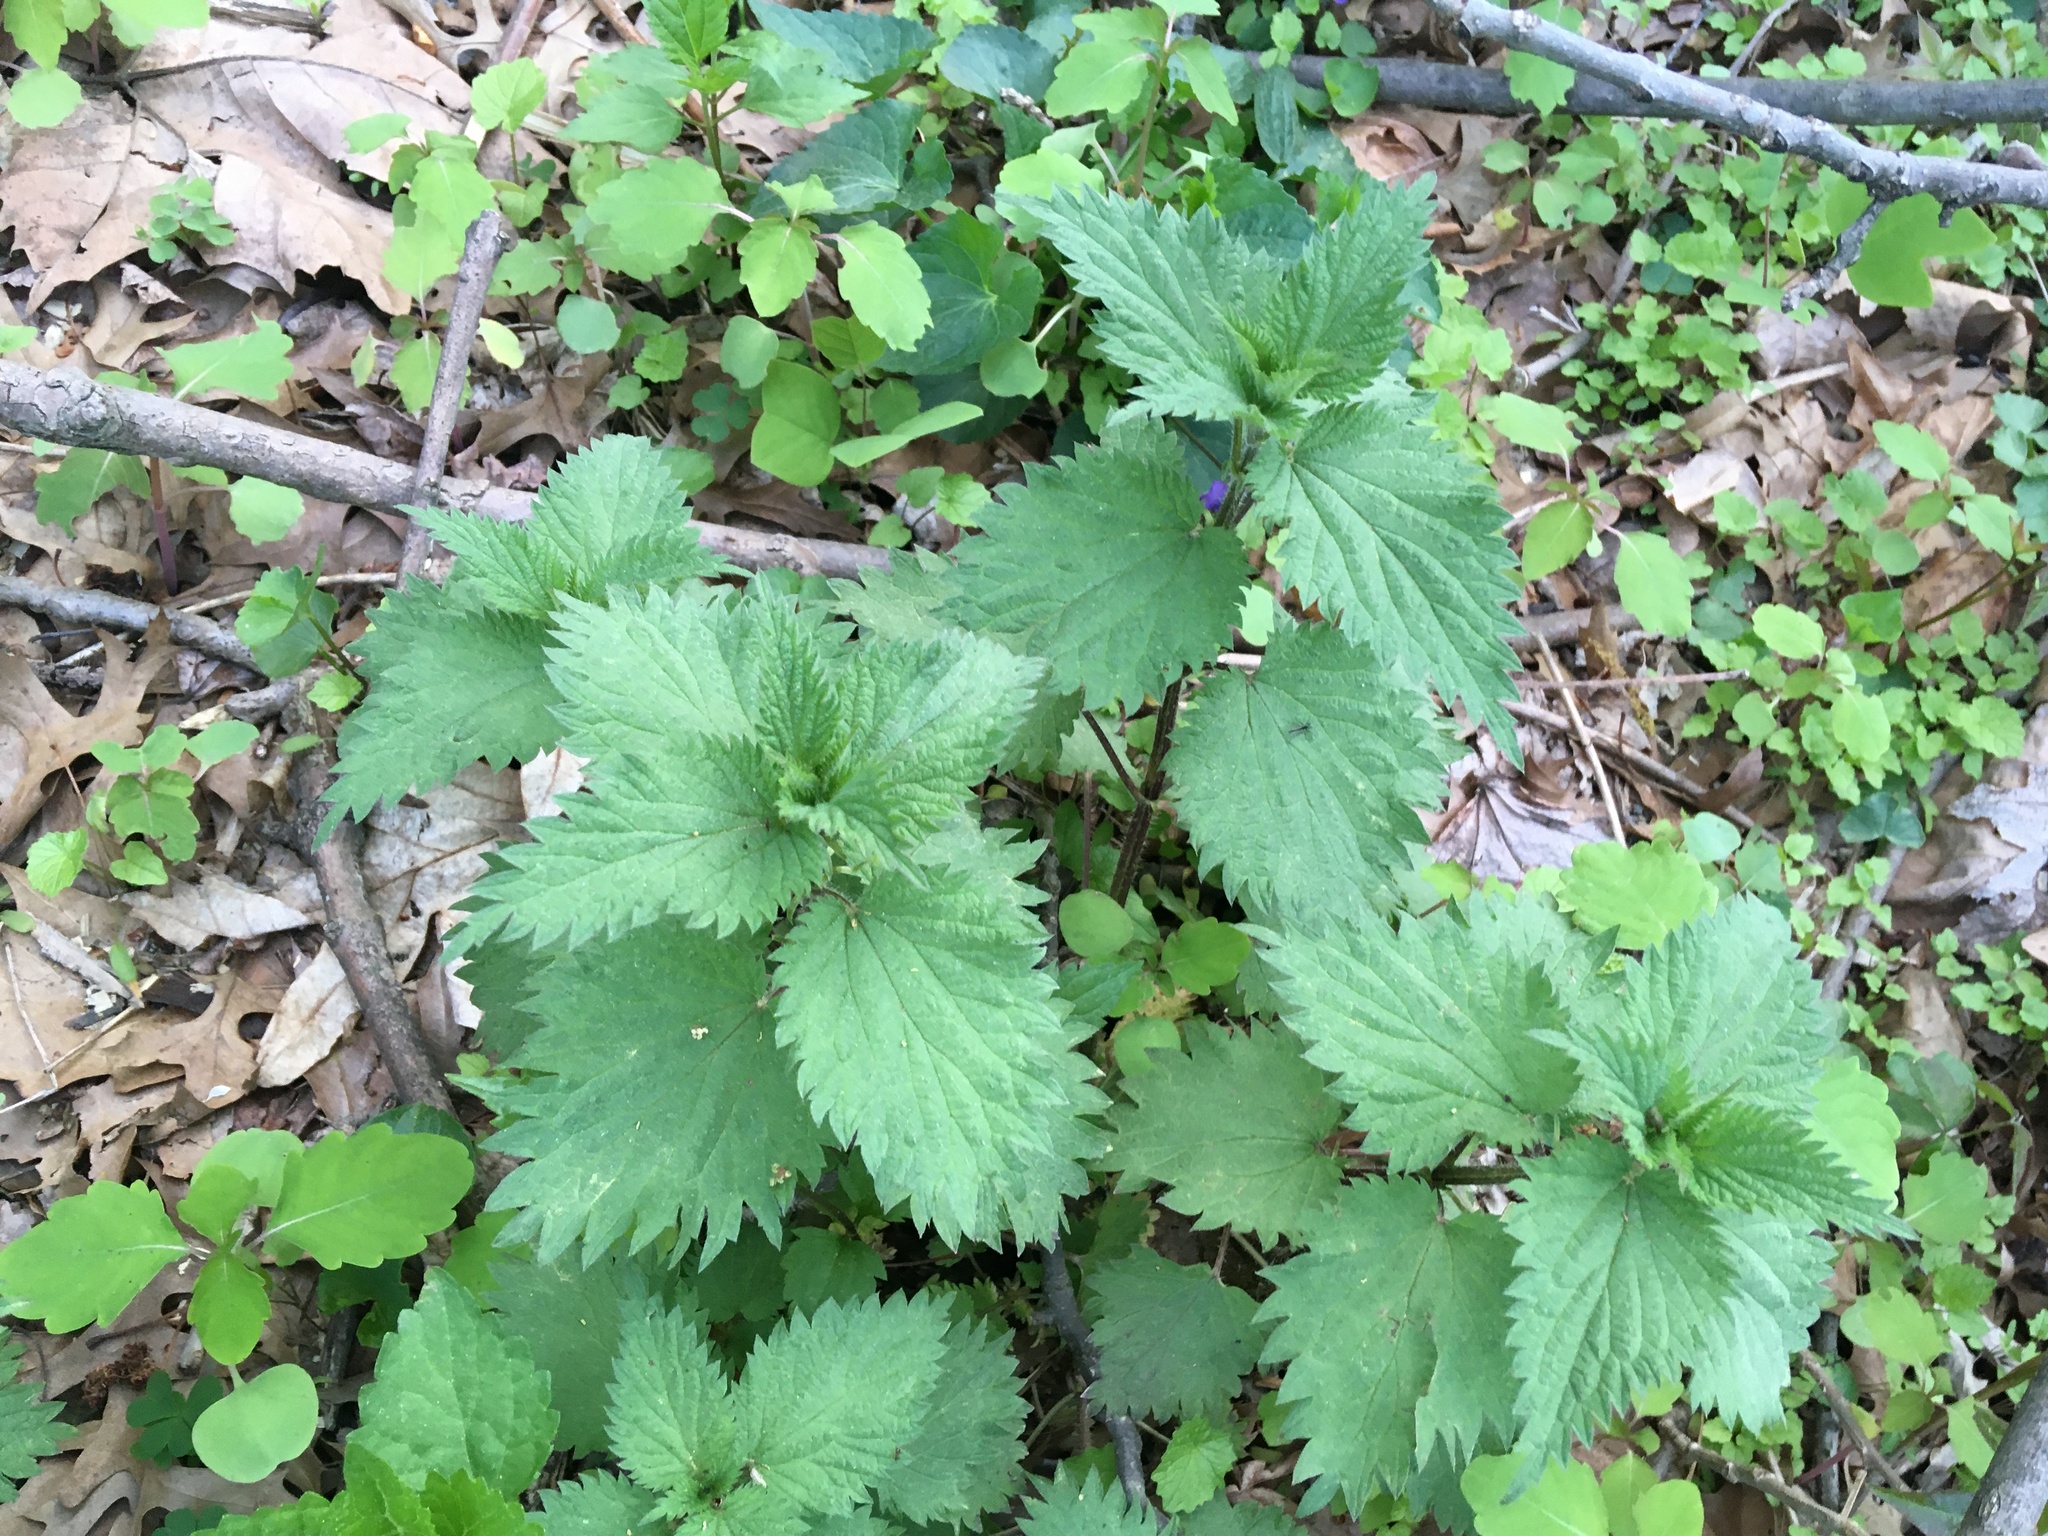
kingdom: Plantae
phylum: Tracheophyta
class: Magnoliopsida
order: Rosales
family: Urticaceae
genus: Urtica
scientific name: Urtica dioica
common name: Common nettle
